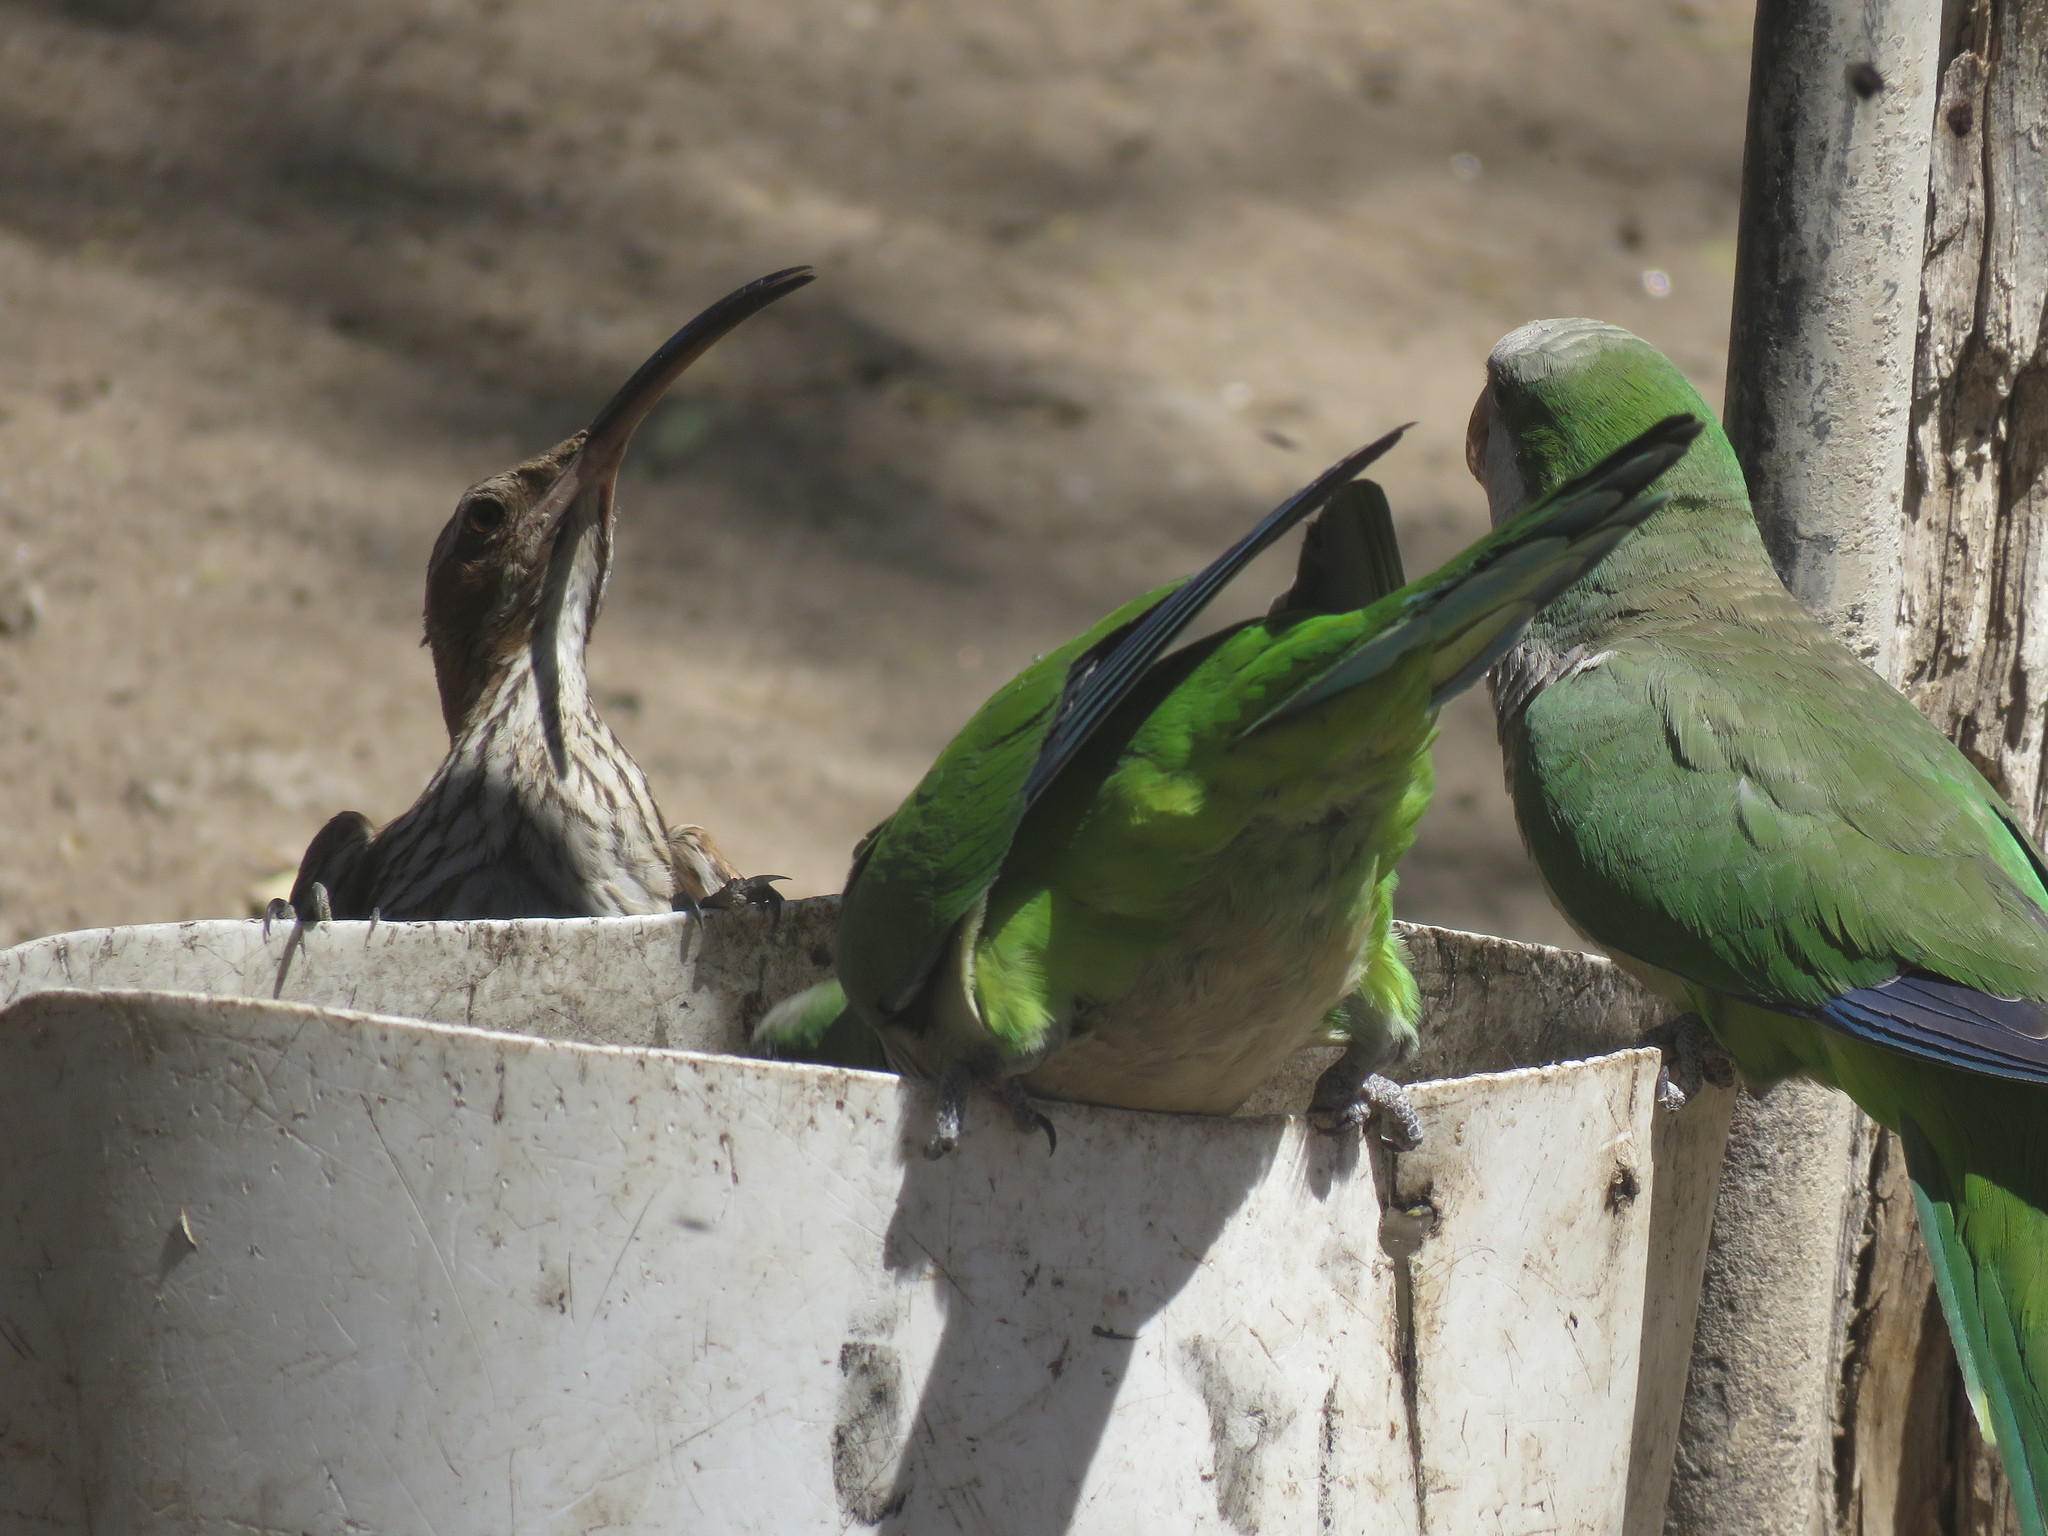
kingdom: Animalia
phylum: Chordata
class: Aves
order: Psittaciformes
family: Psittacidae
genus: Myiopsitta
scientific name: Myiopsitta monachus
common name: Monk parakeet
